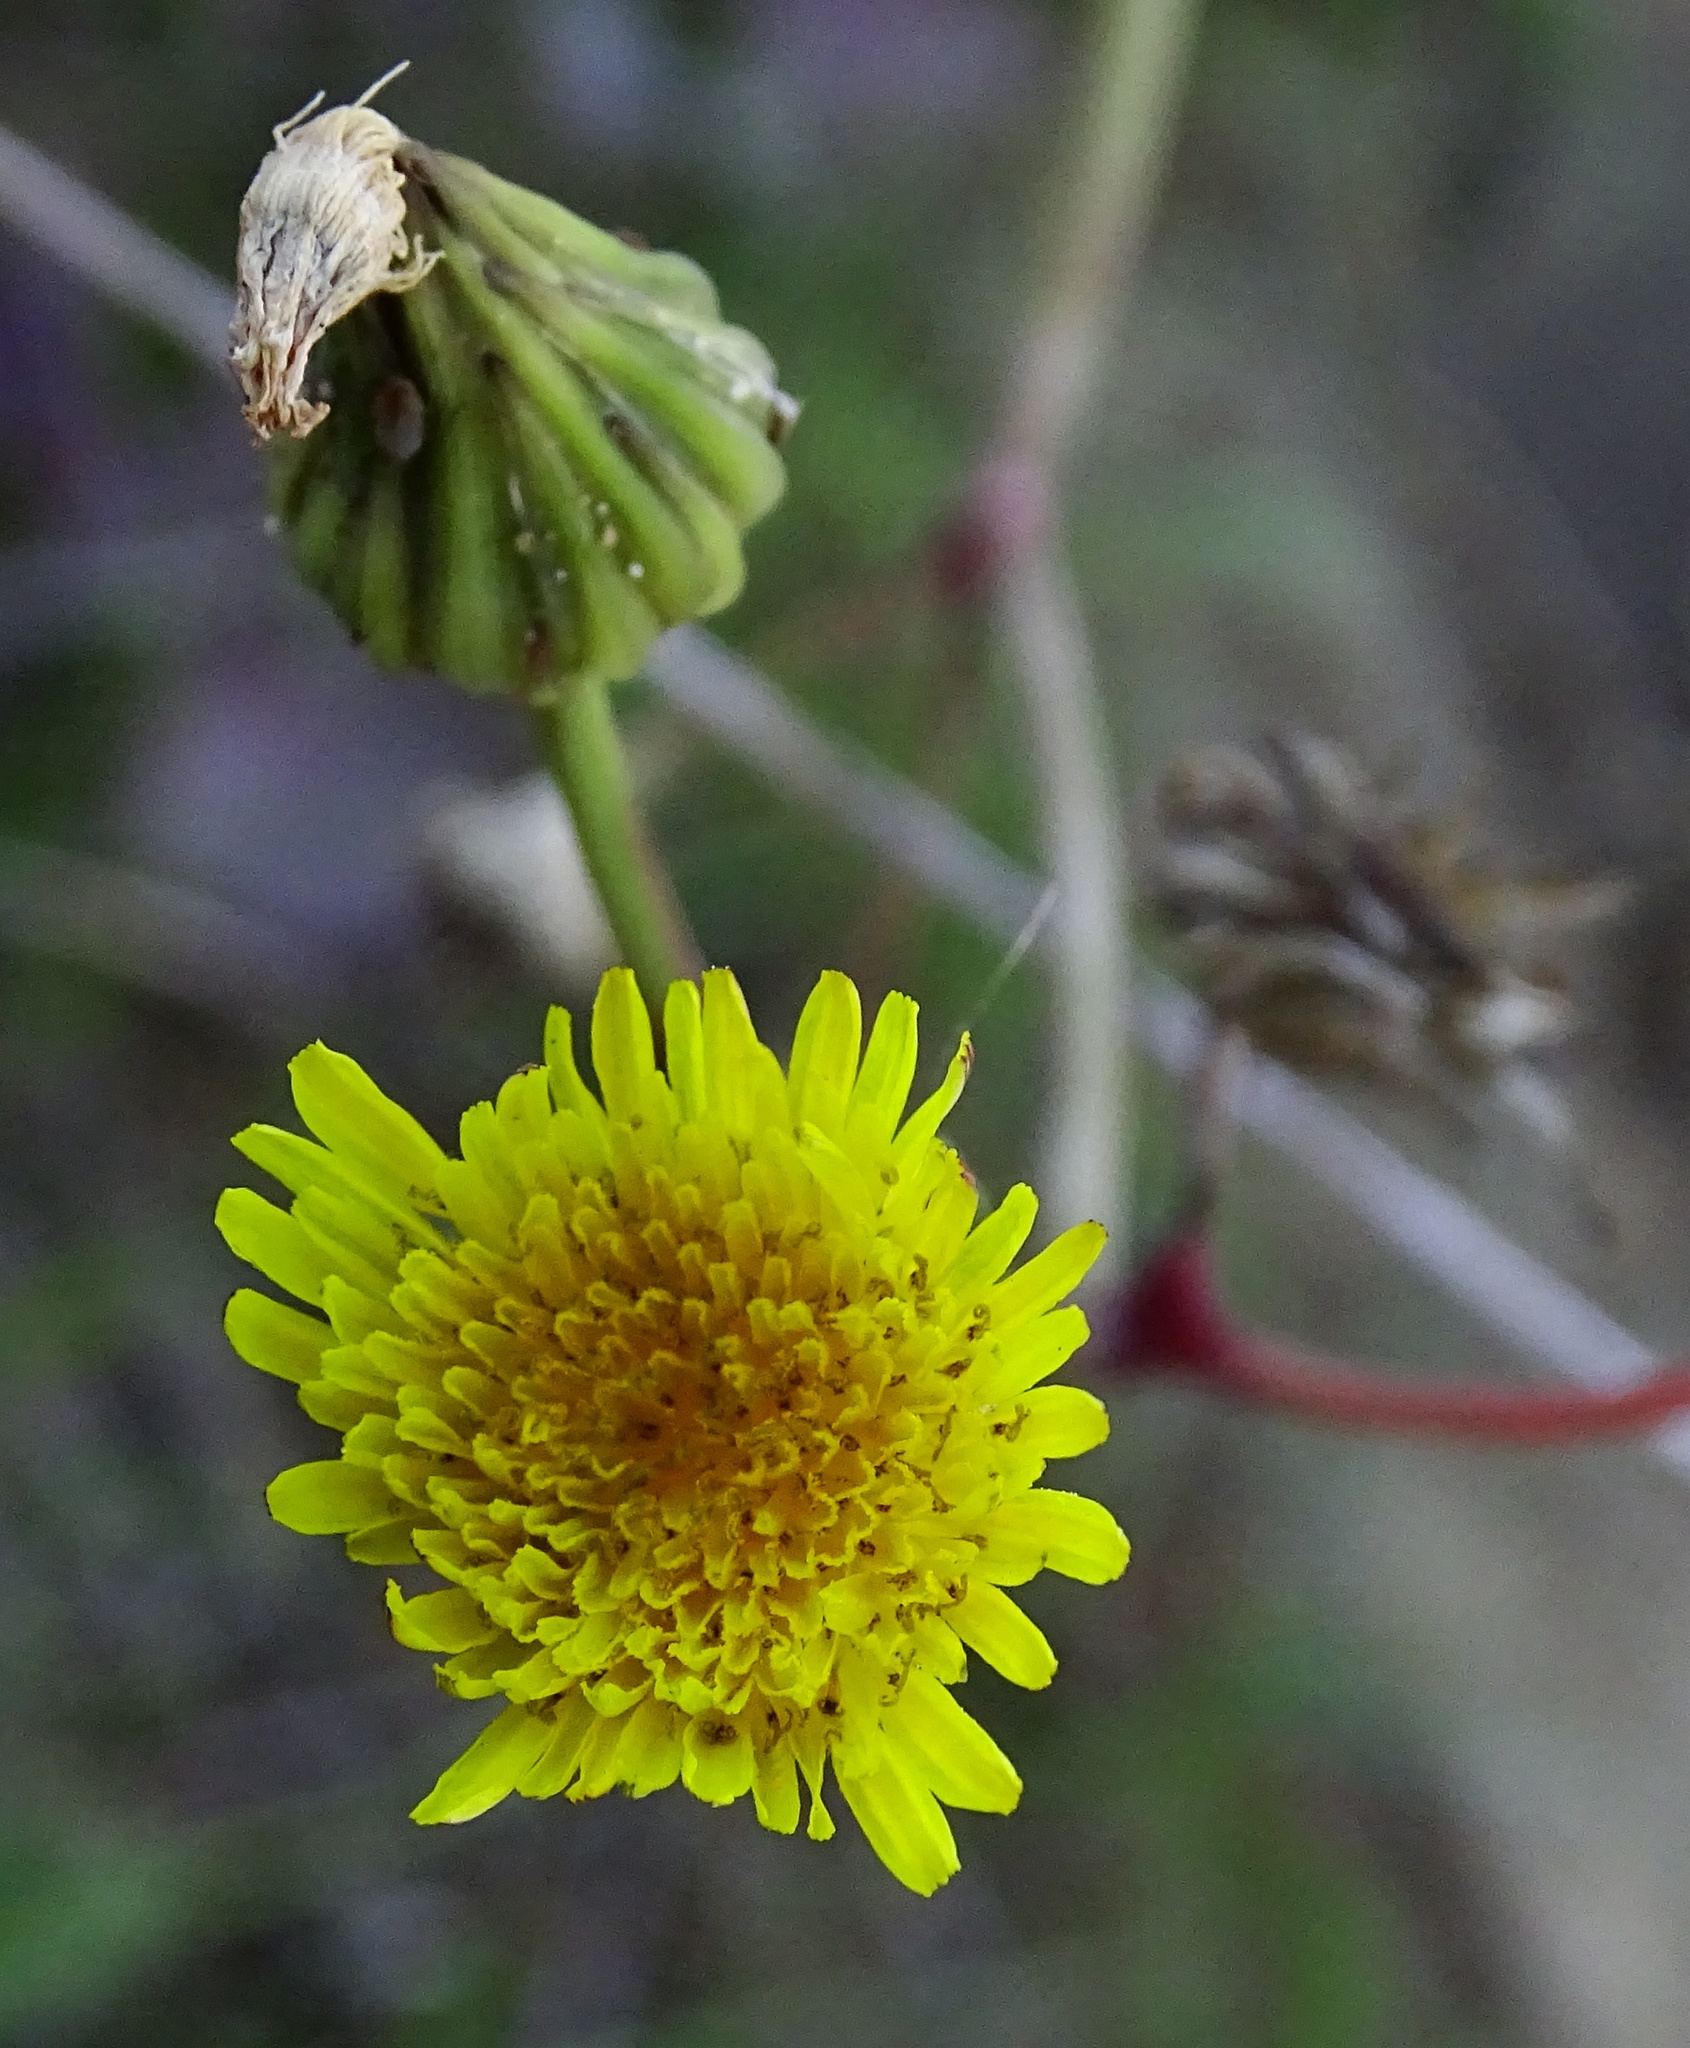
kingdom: Plantae
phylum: Tracheophyta
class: Magnoliopsida
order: Asterales
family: Asteraceae
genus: Sonchus
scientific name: Sonchus oleraceus
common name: Common sowthistle
